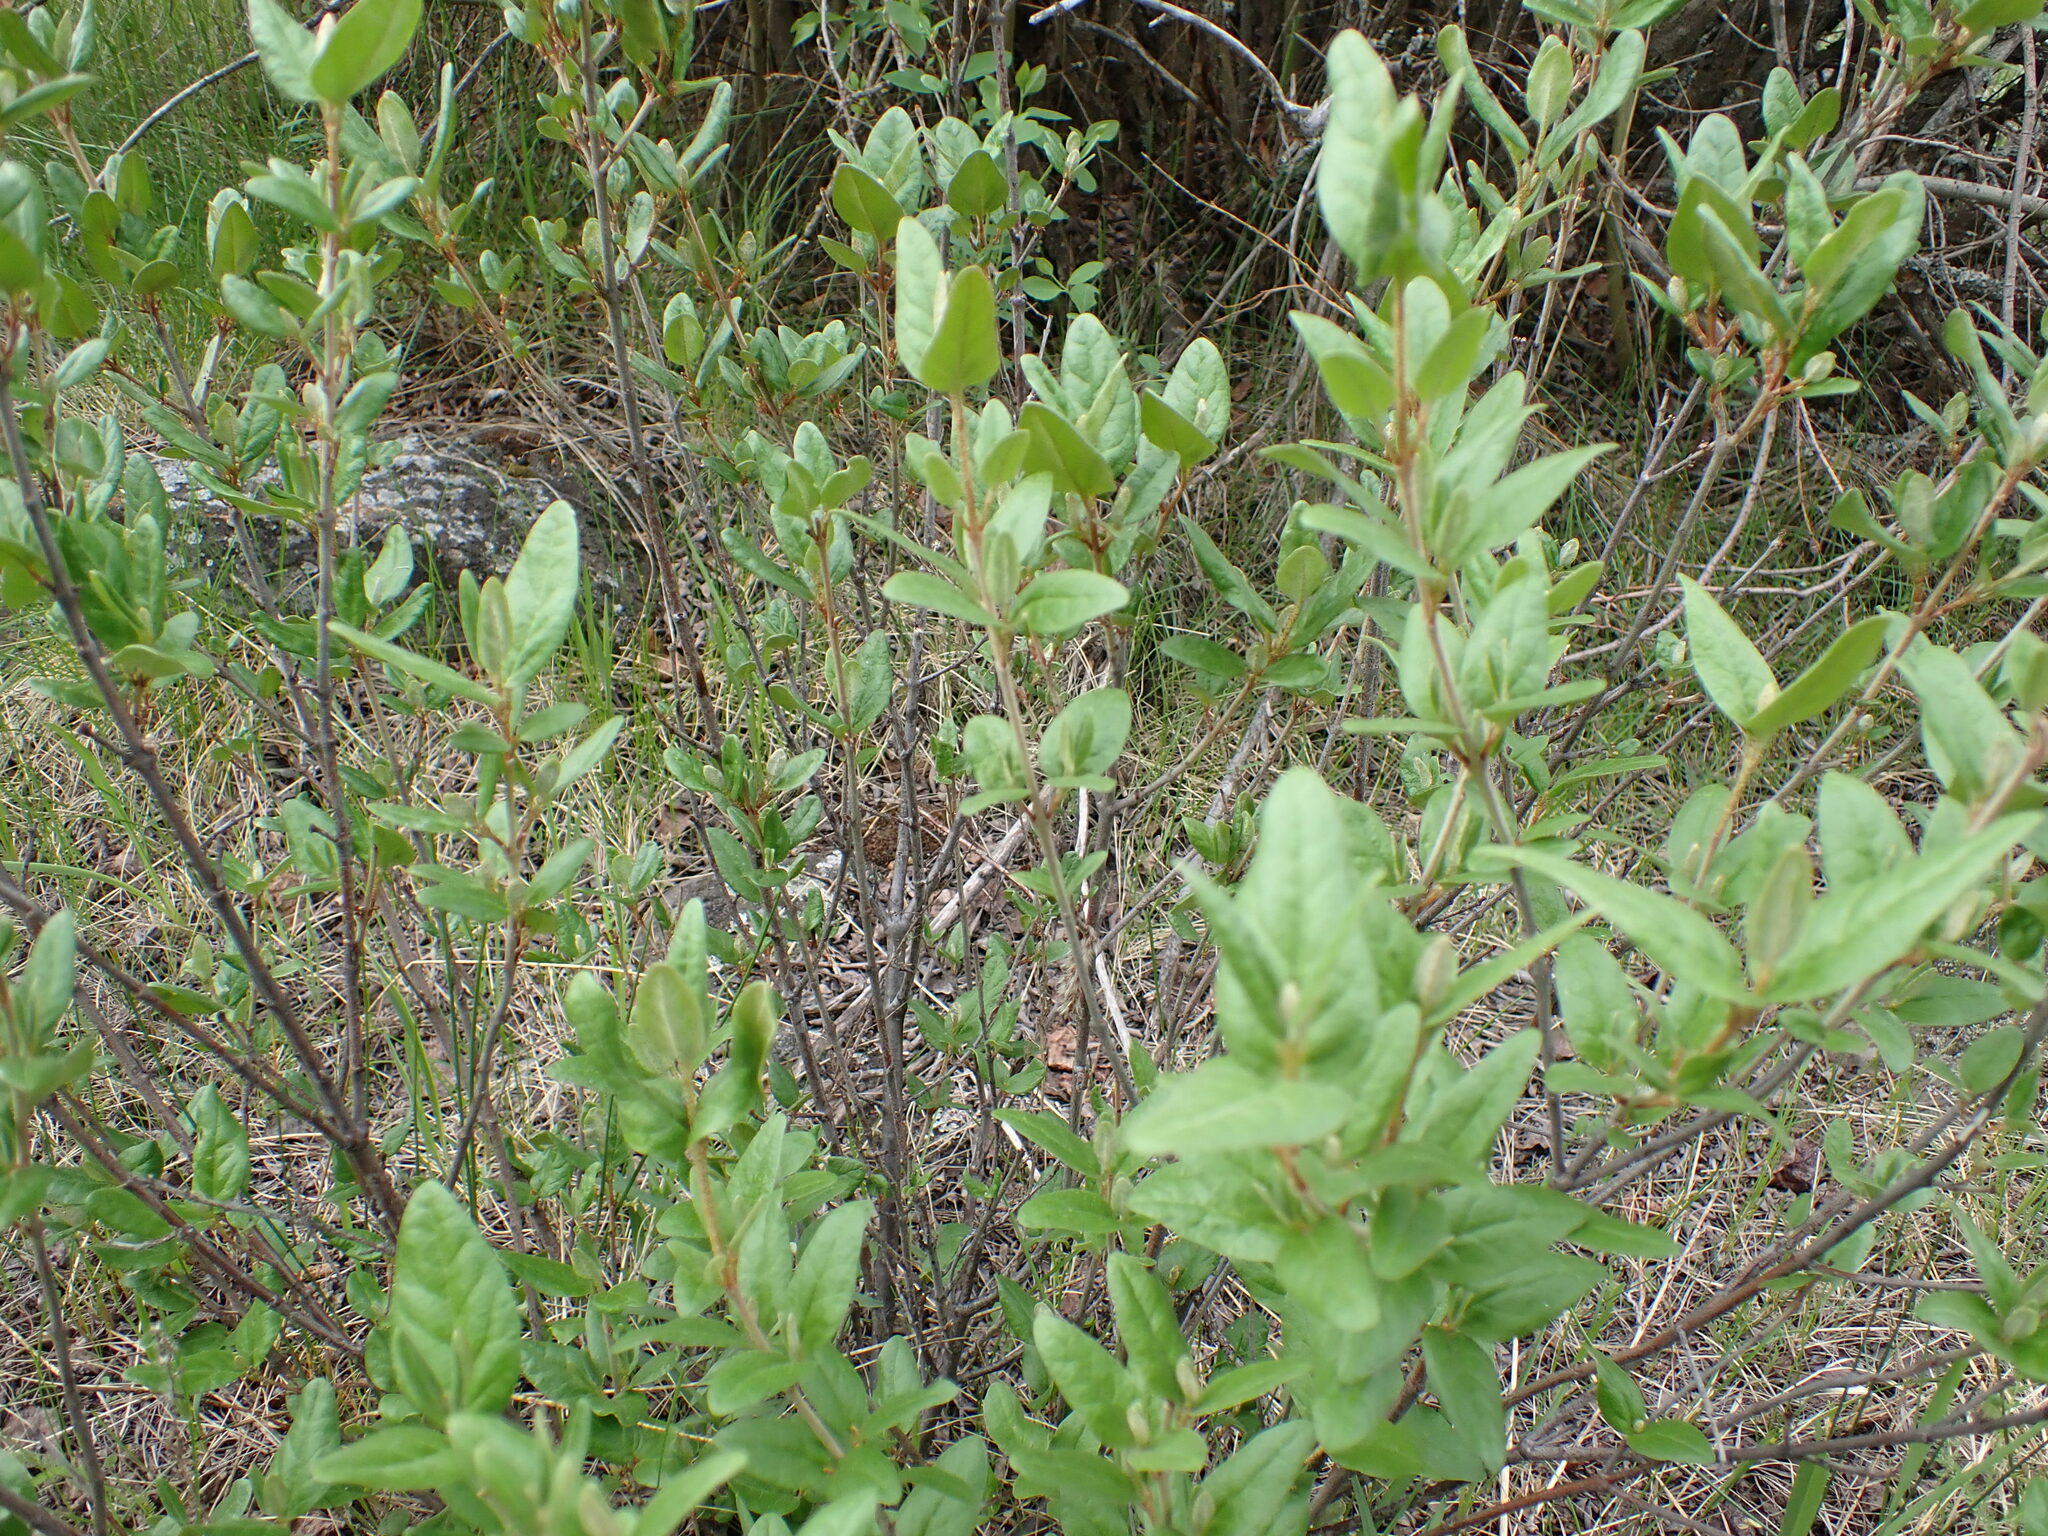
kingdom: Plantae
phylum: Tracheophyta
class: Magnoliopsida
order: Rosales
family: Elaeagnaceae
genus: Shepherdia
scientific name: Shepherdia canadensis
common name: Soapberry
